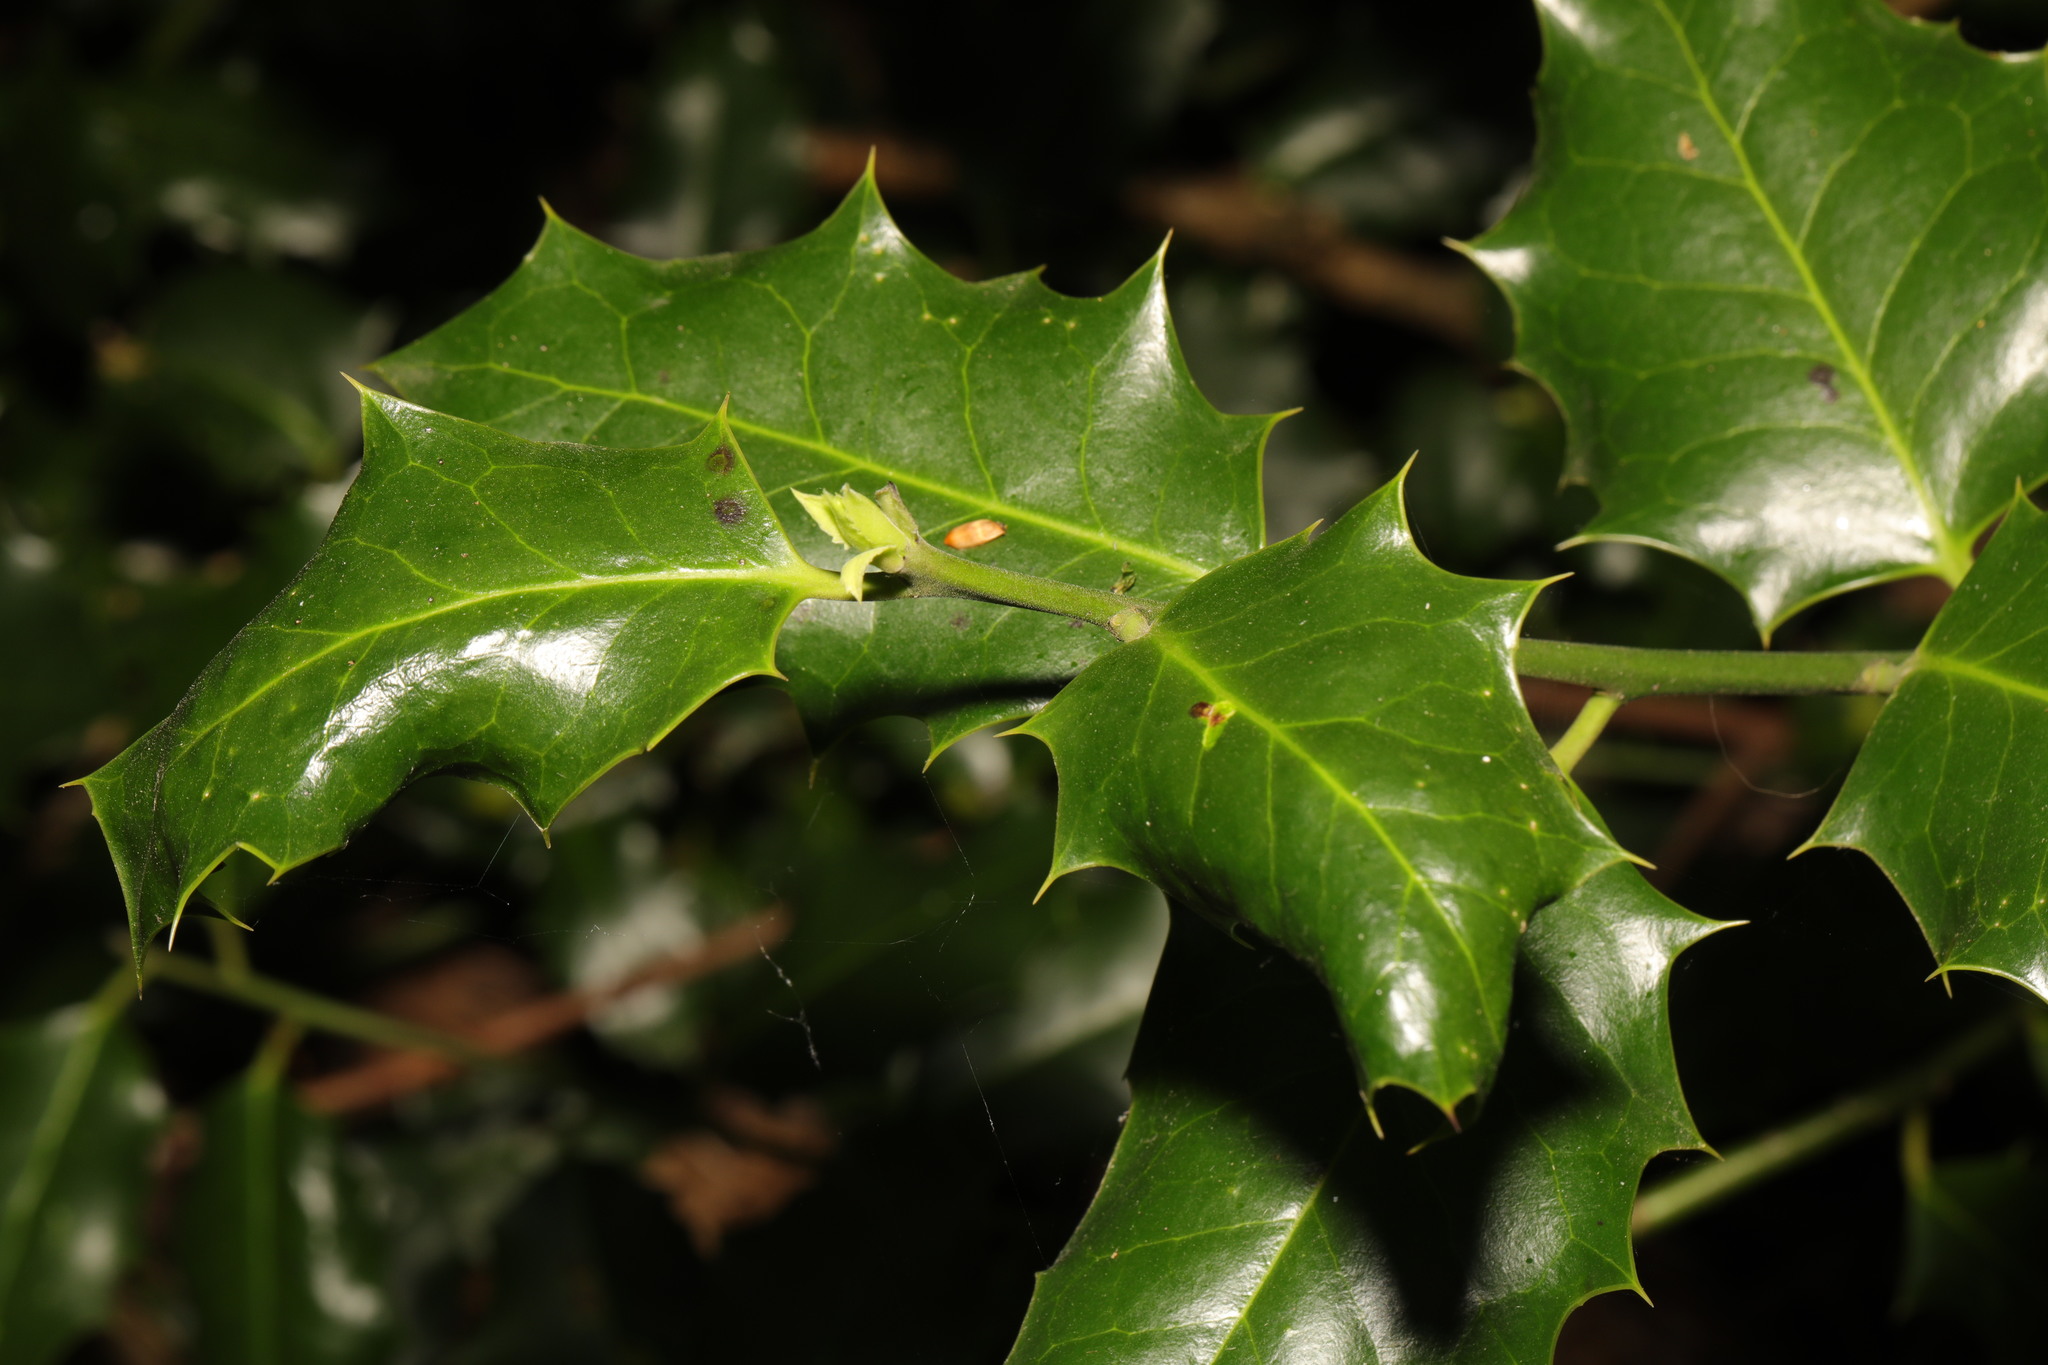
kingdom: Plantae
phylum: Tracheophyta
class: Magnoliopsida
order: Aquifoliales
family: Aquifoliaceae
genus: Ilex
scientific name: Ilex aquifolium
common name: English holly
